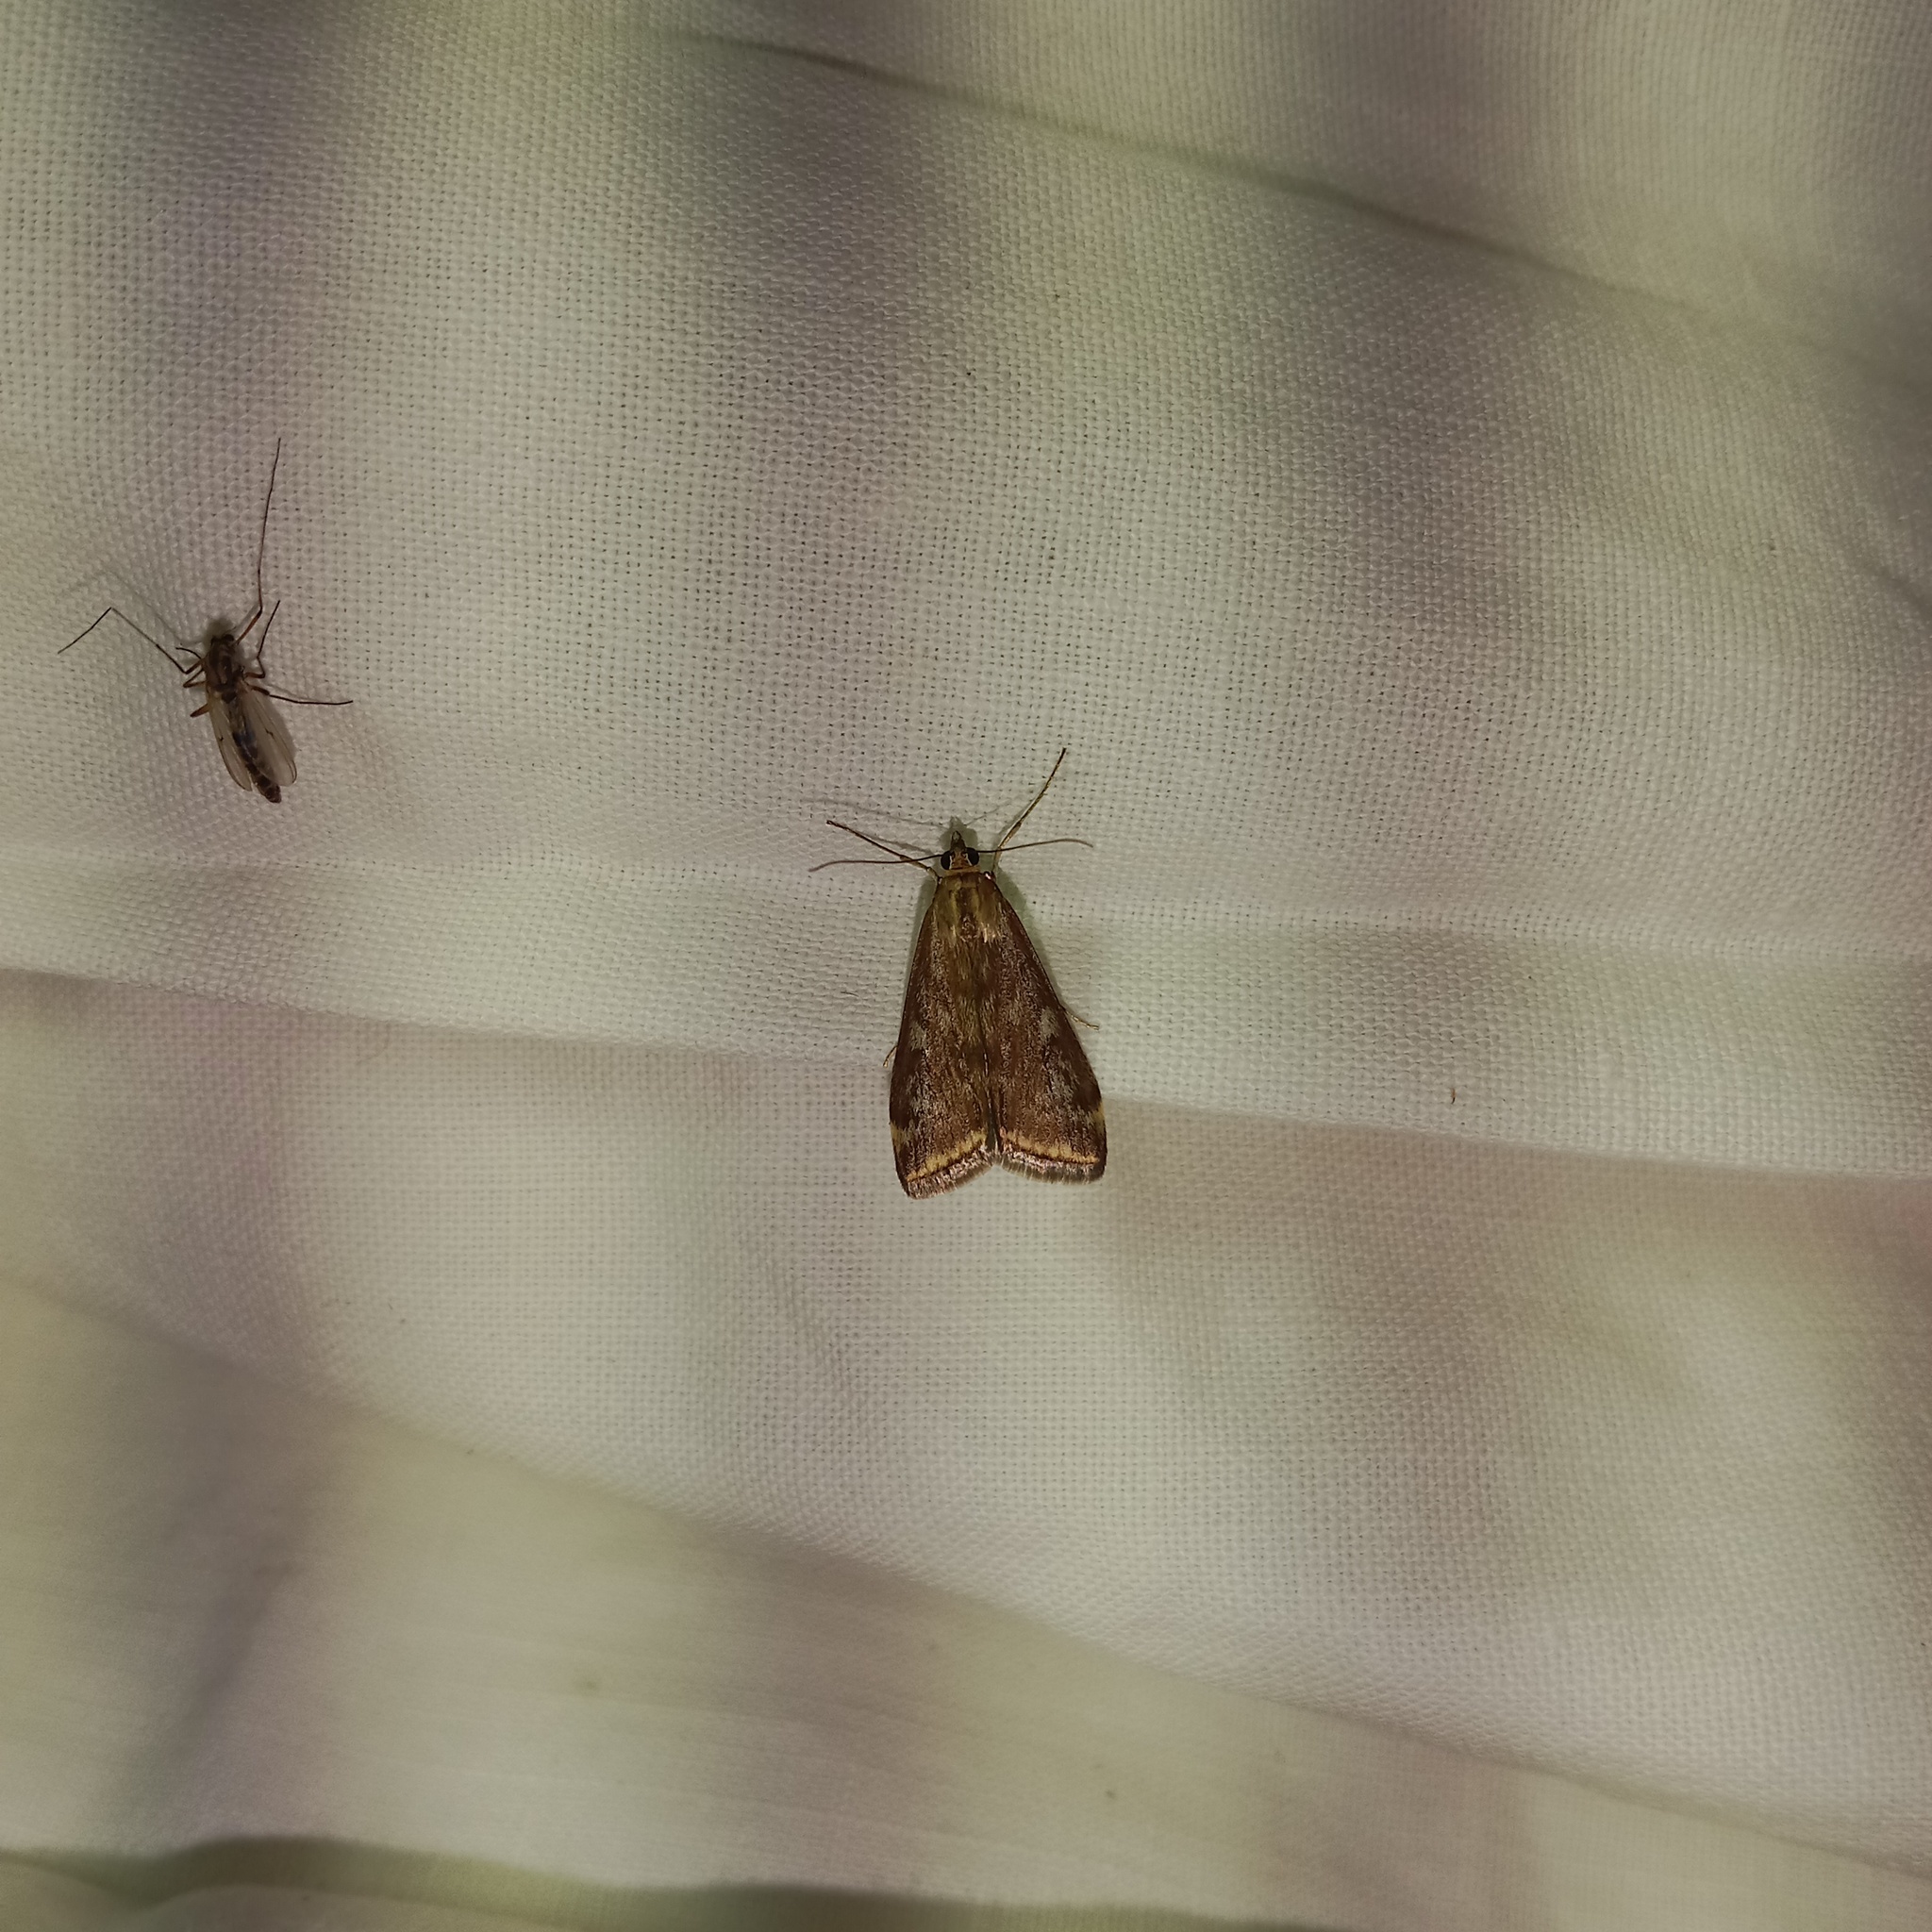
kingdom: Animalia
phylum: Arthropoda
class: Insecta
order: Lepidoptera
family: Crambidae
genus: Loxostege
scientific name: Loxostege sticticalis
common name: Crambid moth
